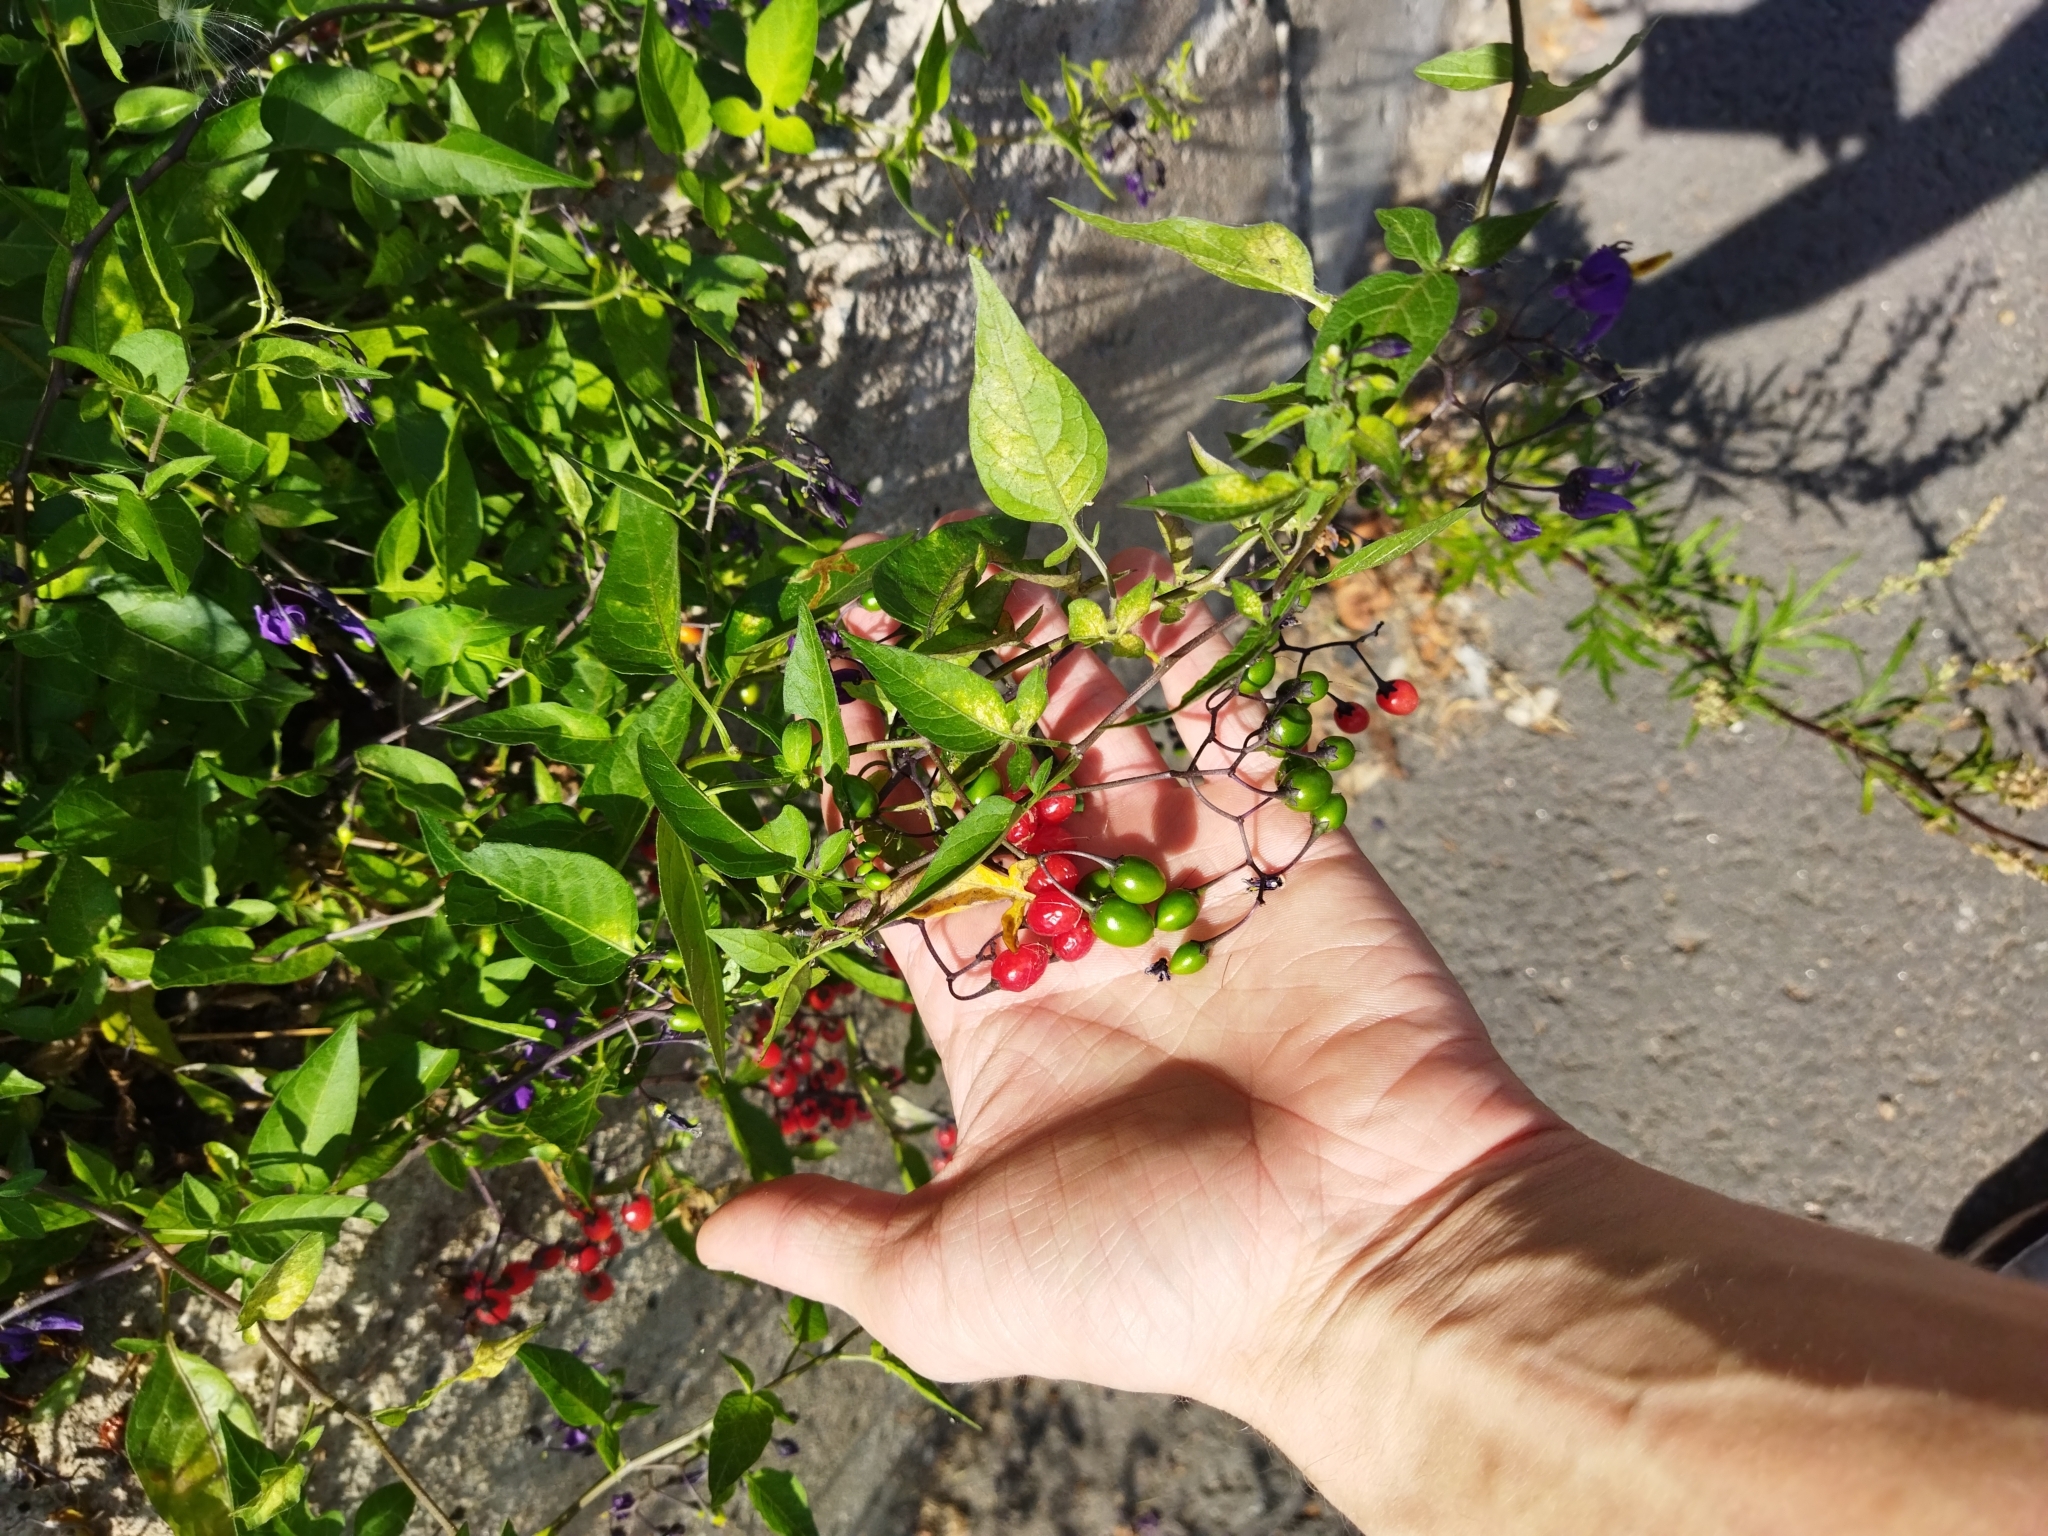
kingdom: Plantae
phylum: Tracheophyta
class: Magnoliopsida
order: Solanales
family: Solanaceae
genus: Solanum
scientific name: Solanum dulcamara
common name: Climbing nightshade
